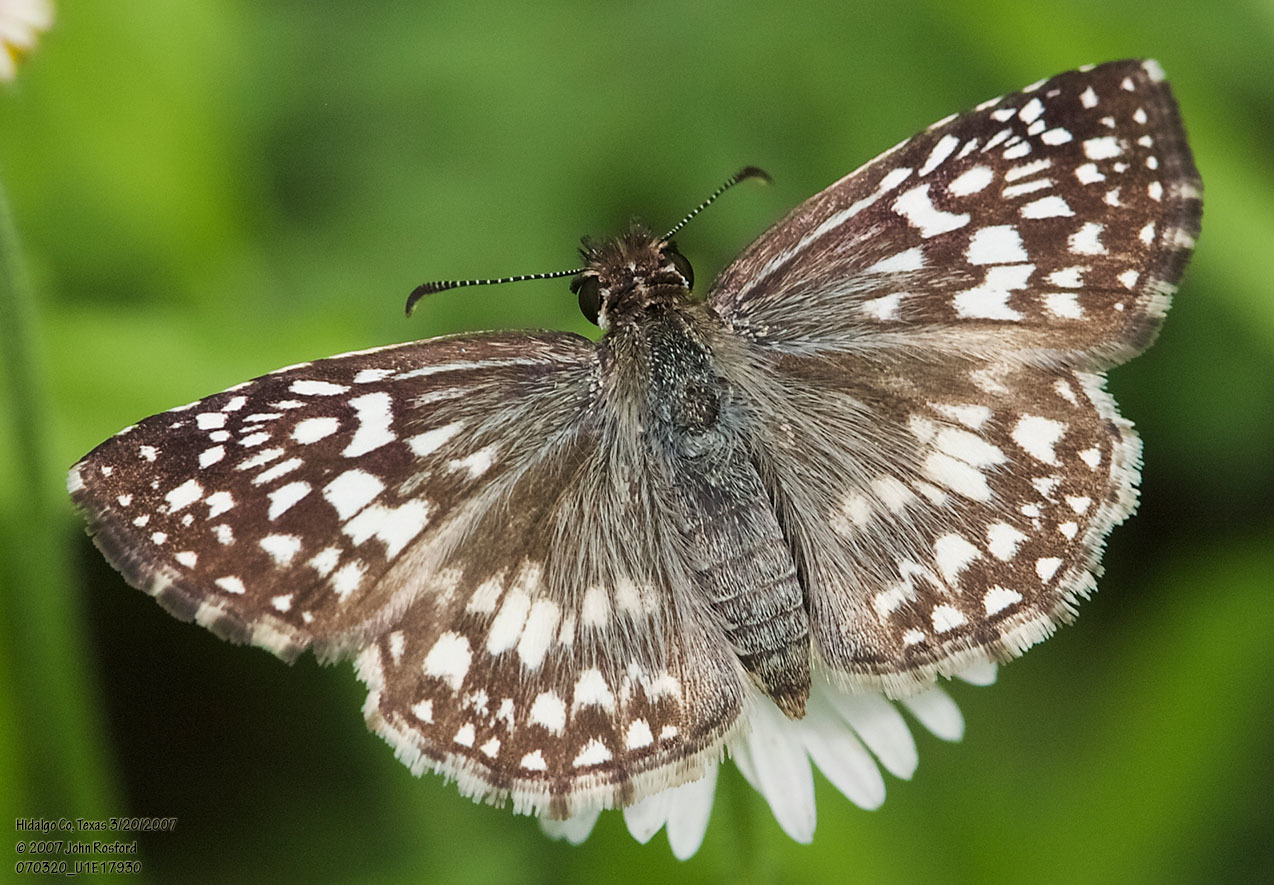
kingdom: Animalia
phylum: Arthropoda
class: Insecta
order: Lepidoptera
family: Hesperiidae
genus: Pyrgus
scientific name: Pyrgus oileus
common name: Tropical checkered-skipper
